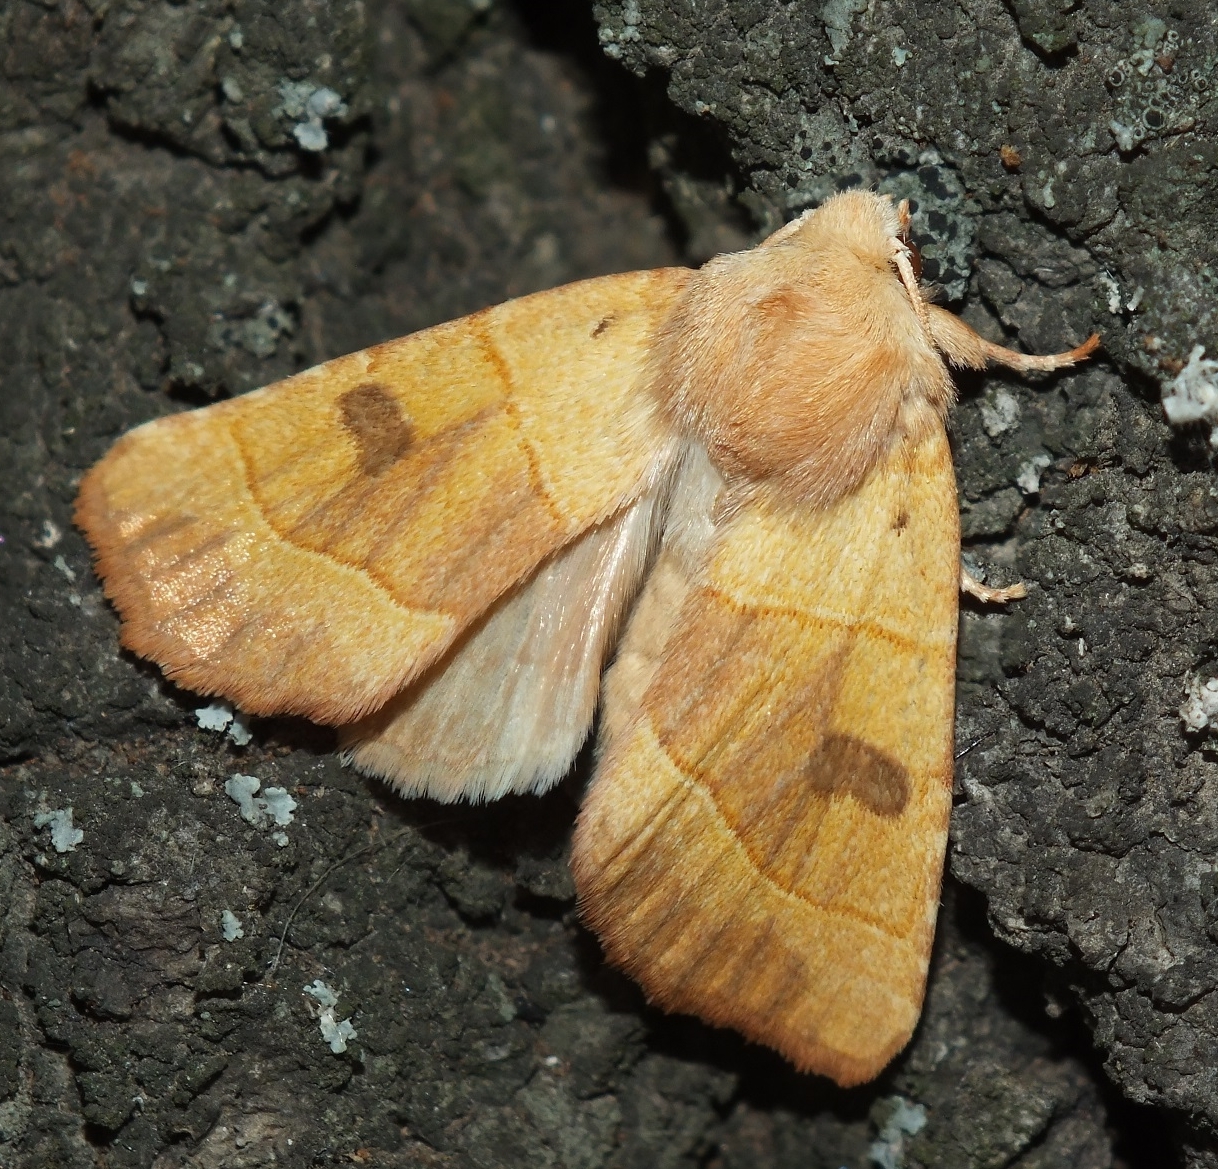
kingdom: Animalia
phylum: Arthropoda
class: Insecta
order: Lepidoptera
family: Noctuidae
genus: Atethmia
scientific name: Atethmia centrago
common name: Centre-barred sallow
